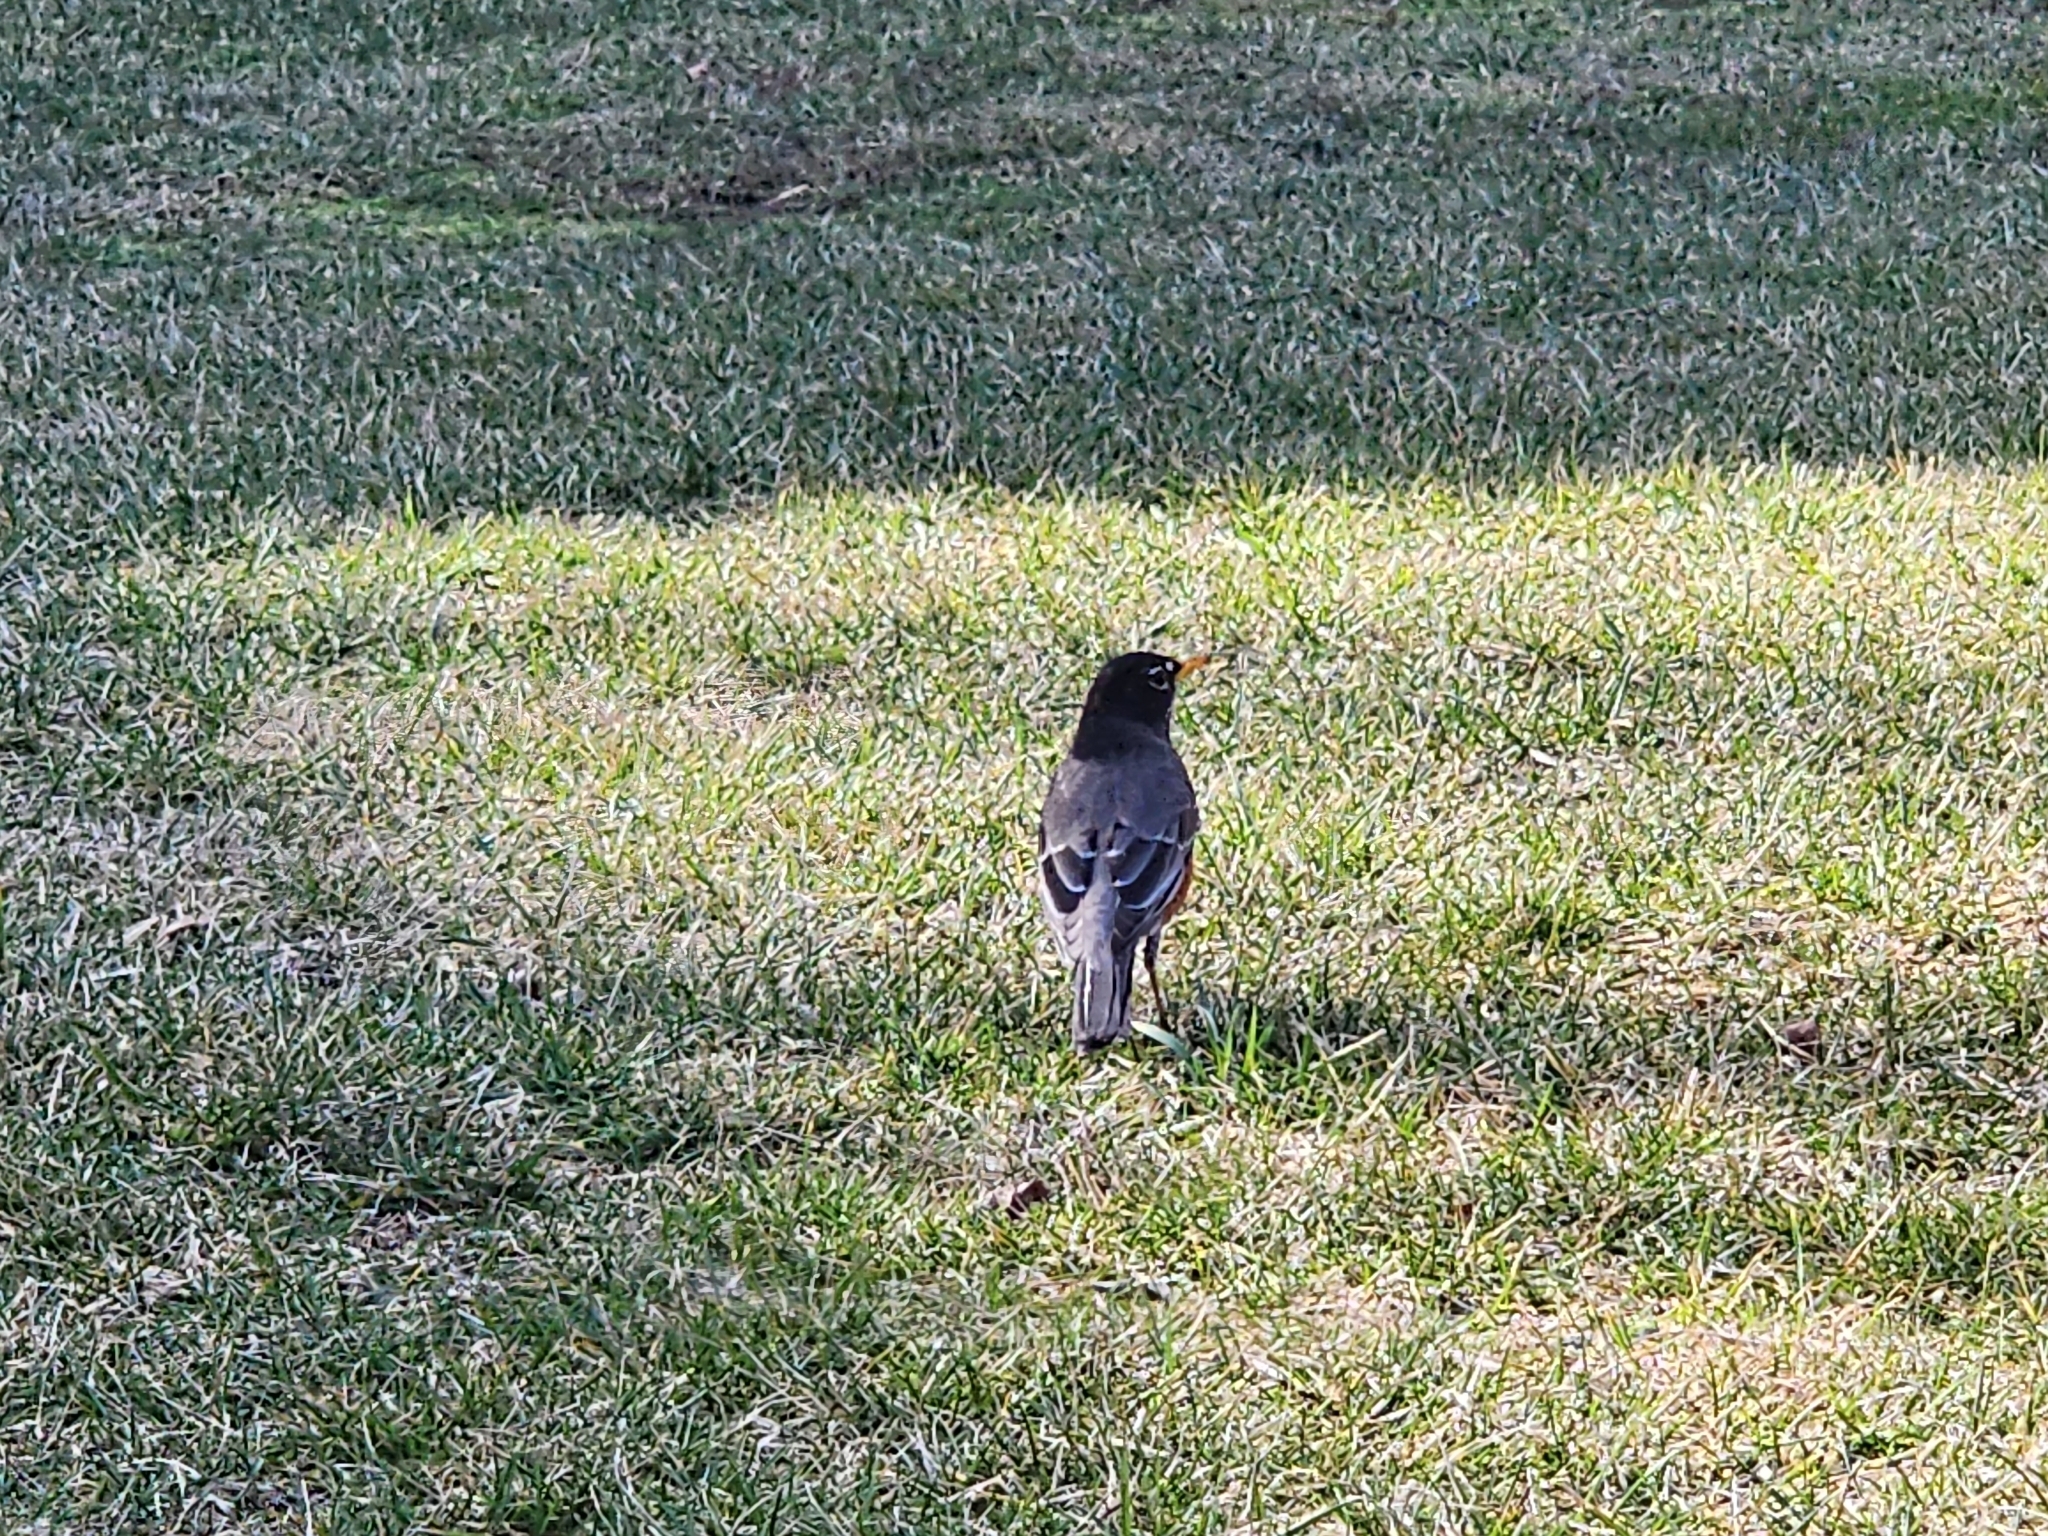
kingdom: Animalia
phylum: Chordata
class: Aves
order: Passeriformes
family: Turdidae
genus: Turdus
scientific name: Turdus migratorius
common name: American robin
